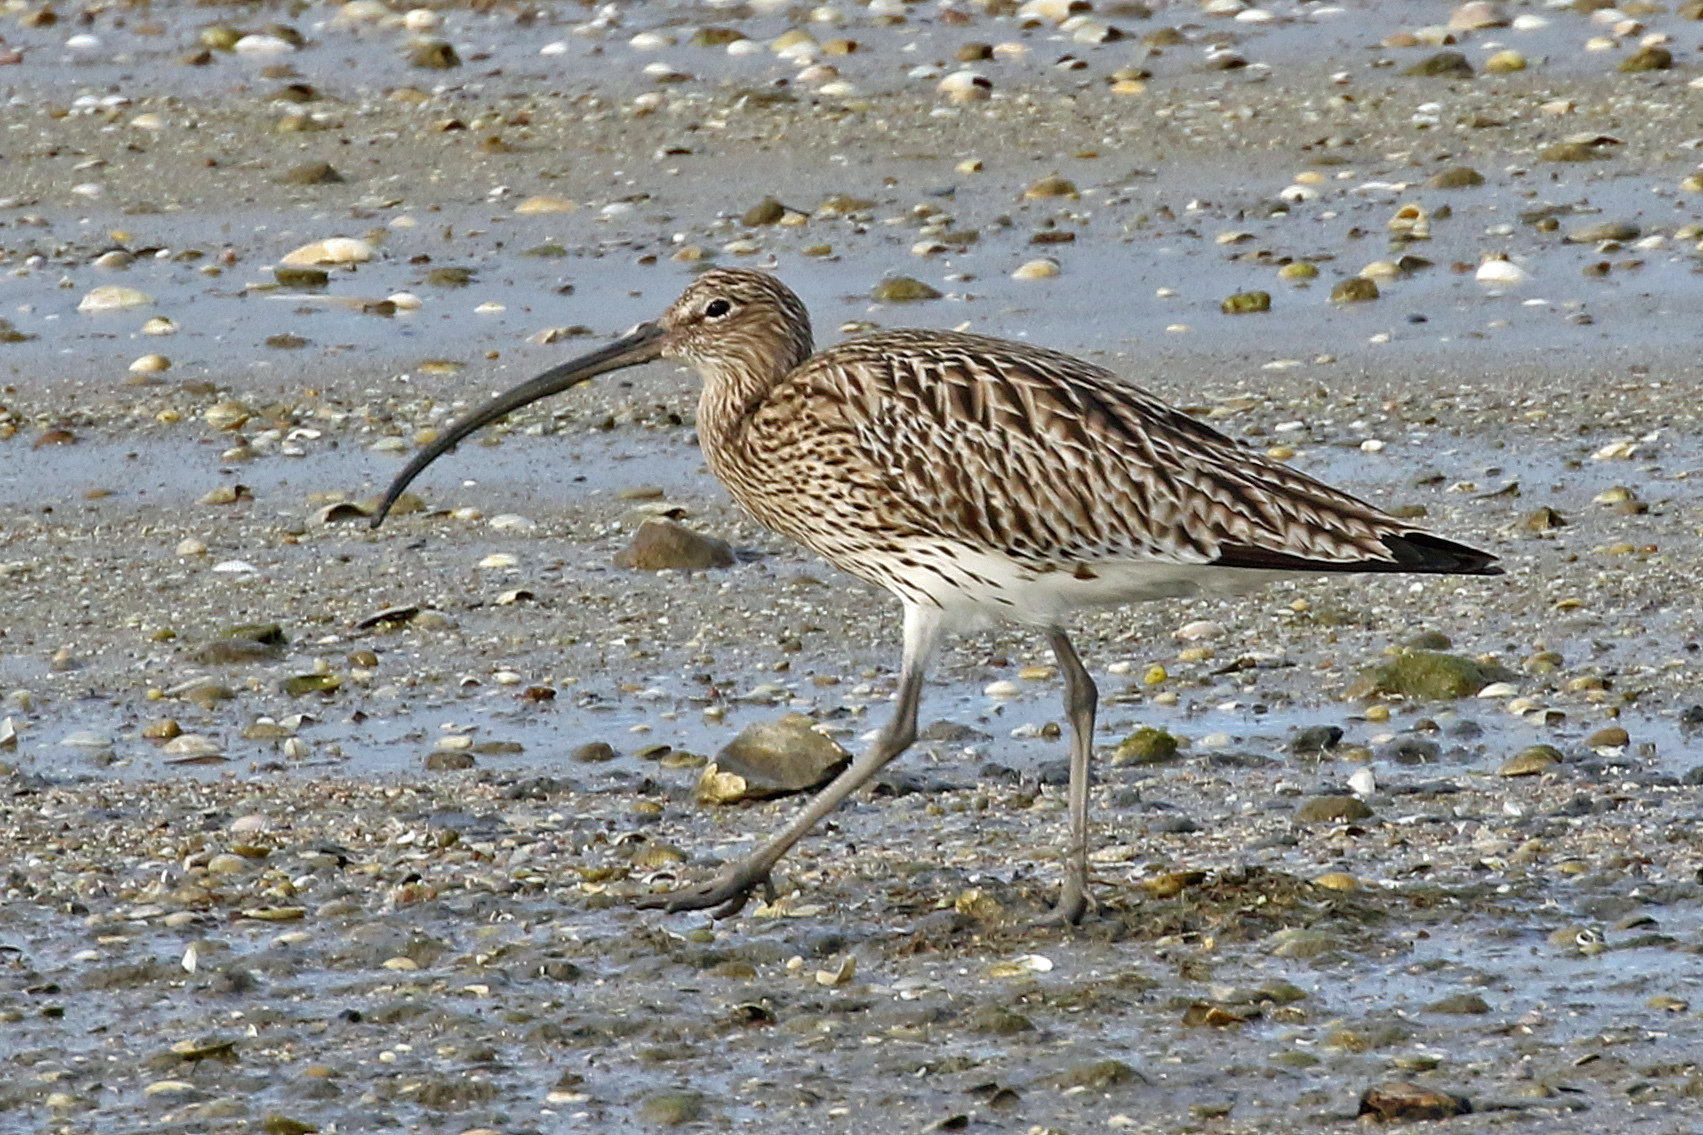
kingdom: Animalia
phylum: Chordata
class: Aves
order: Charadriiformes
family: Scolopacidae
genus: Numenius
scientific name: Numenius arquata
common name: Eurasian curlew
